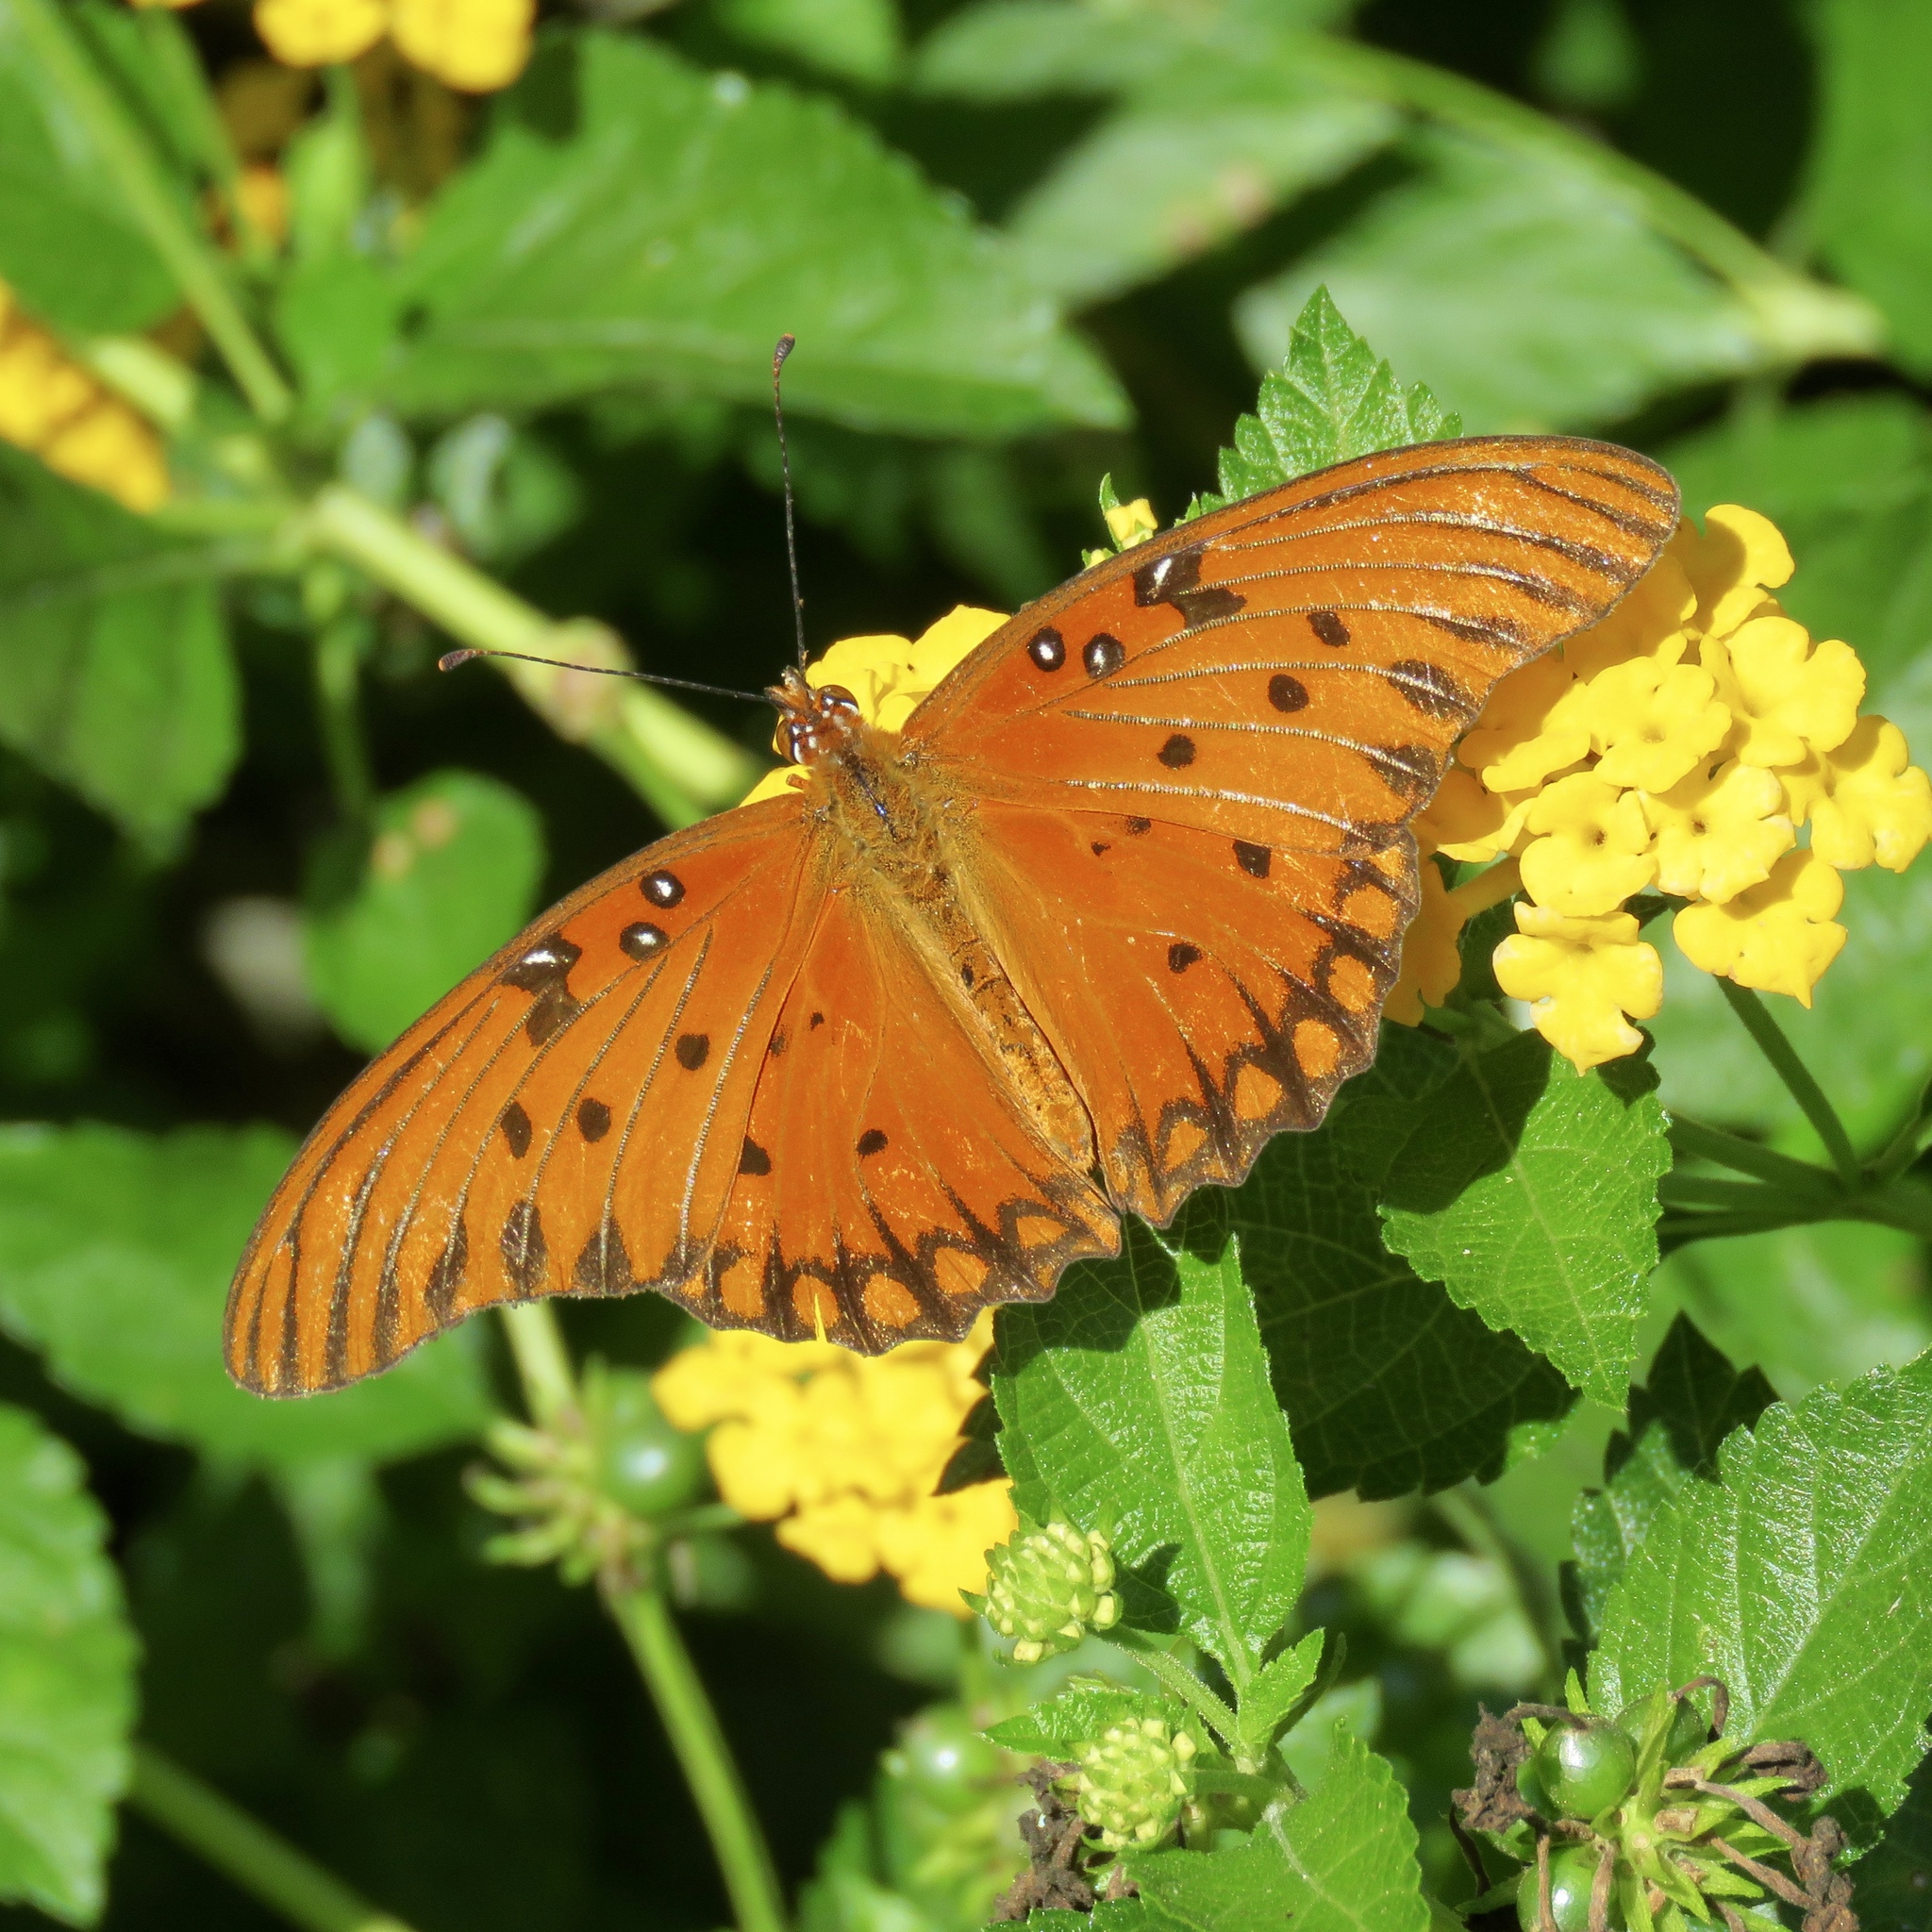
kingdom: Animalia
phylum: Arthropoda
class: Insecta
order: Lepidoptera
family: Nymphalidae
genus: Dione
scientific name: Dione vanillae
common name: Gulf fritillary
